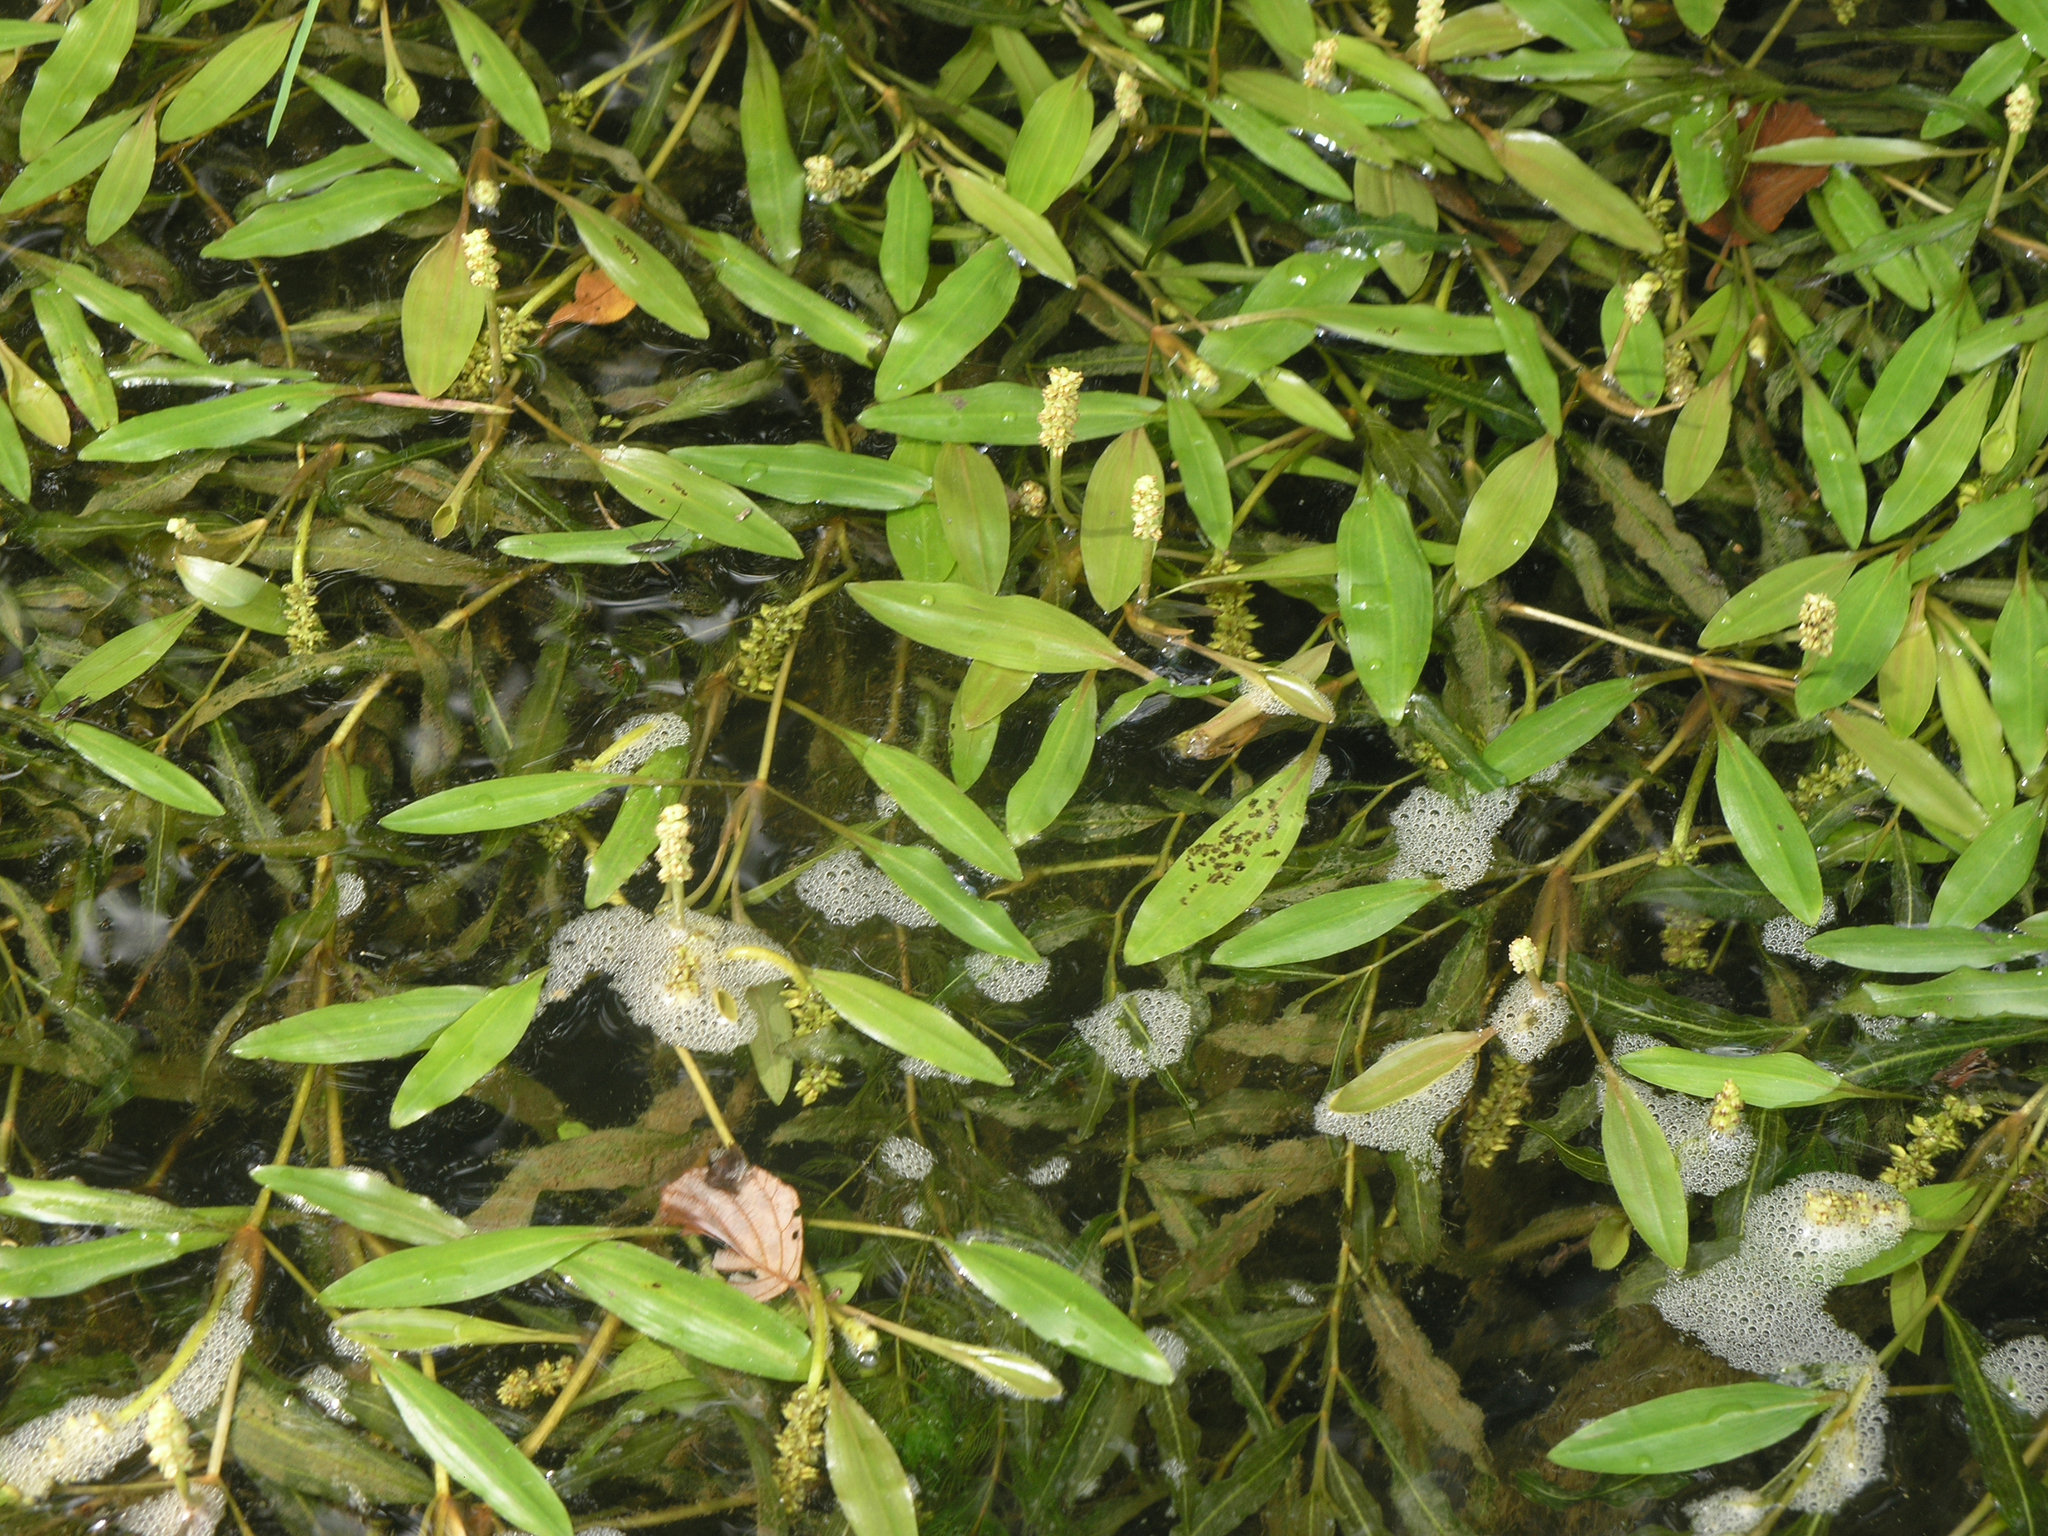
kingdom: Plantae
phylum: Tracheophyta
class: Liliopsida
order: Alismatales
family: Potamogetonaceae
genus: Potamogeton
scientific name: Potamogeton alpinus
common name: Red pondweed
